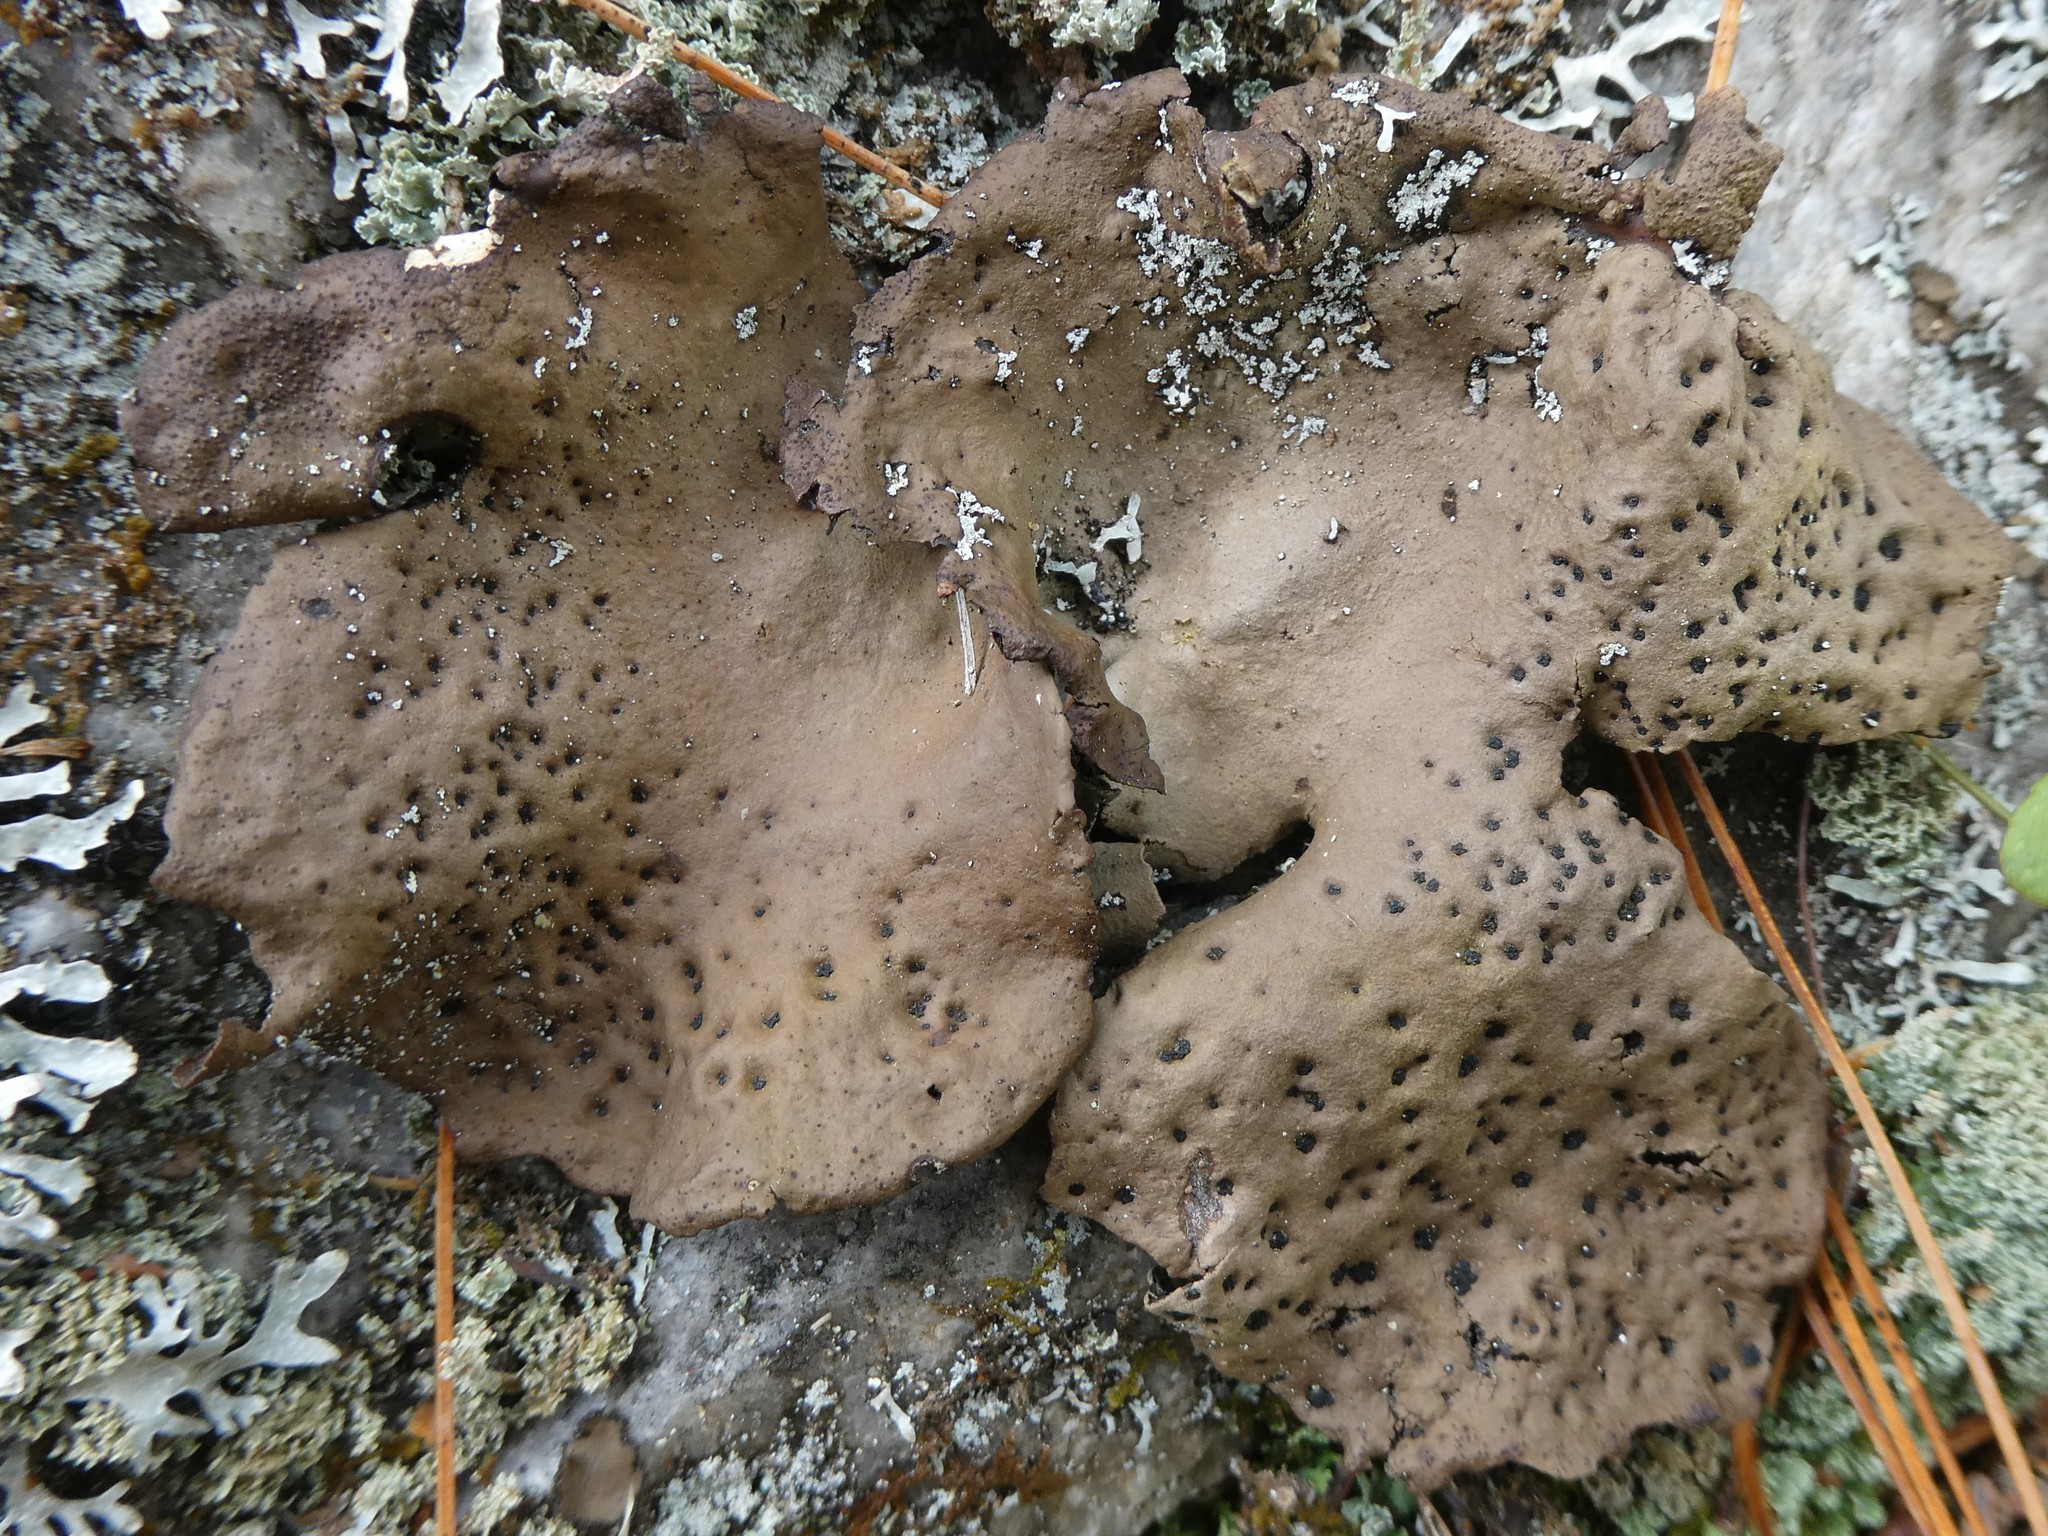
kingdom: Fungi
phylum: Ascomycota
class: Lecanoromycetes
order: Umbilicariales
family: Umbilicariaceae
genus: Umbilicaria
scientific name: Umbilicaria muhlenbergii
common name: Lesser rocktripe
